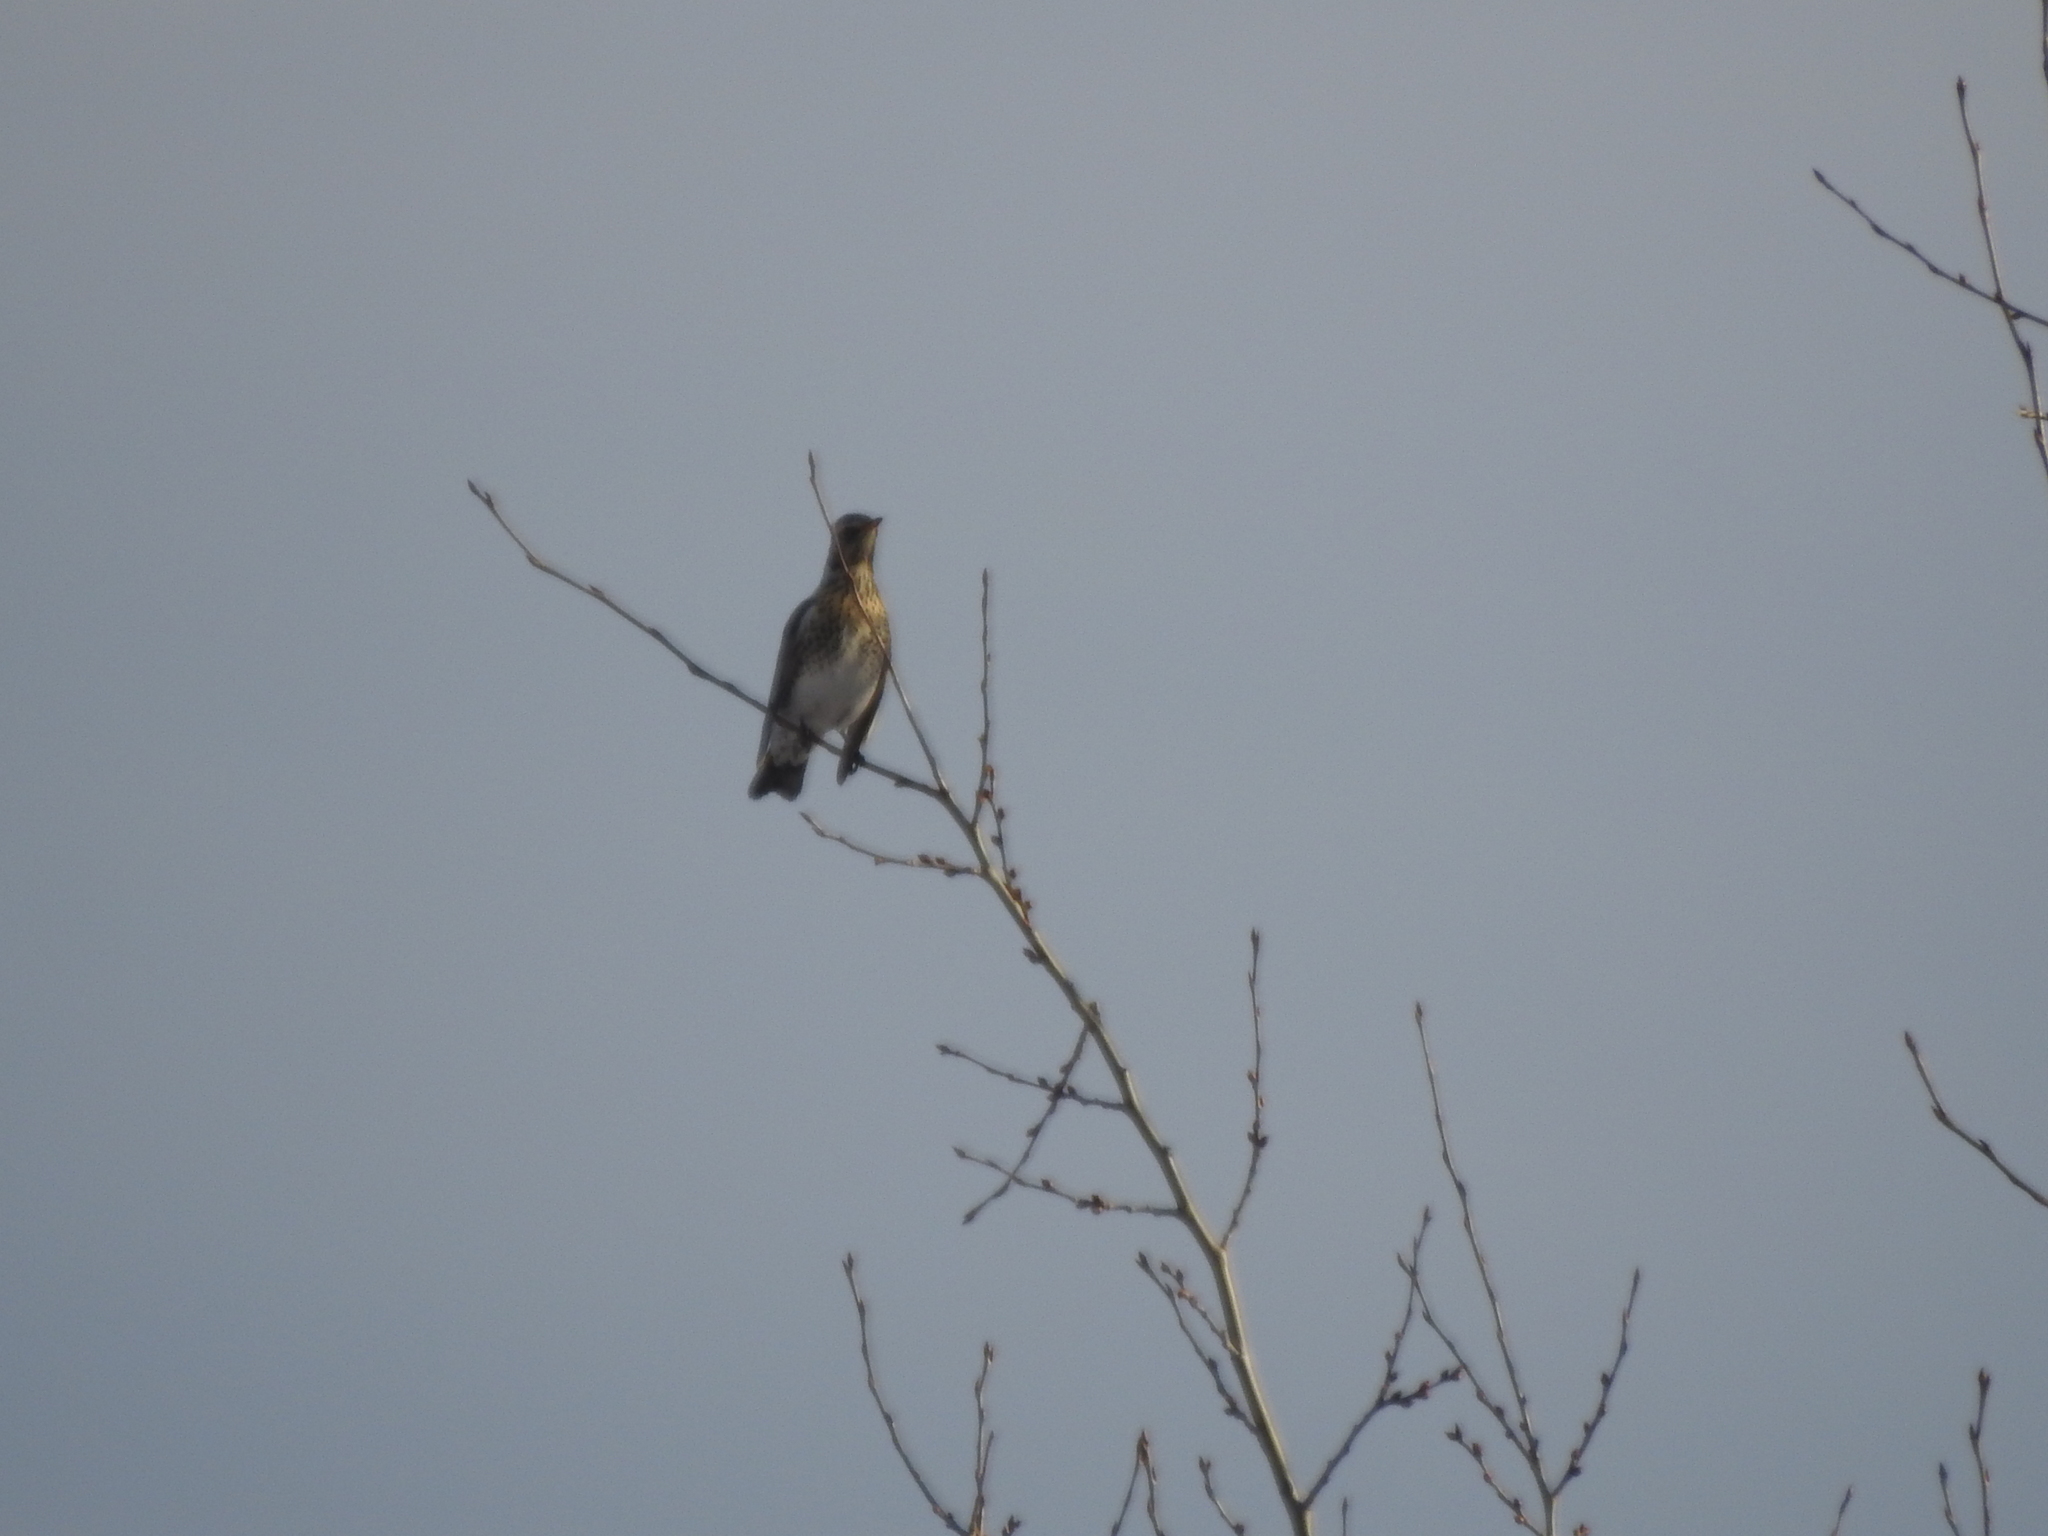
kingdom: Animalia
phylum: Chordata
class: Aves
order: Passeriformes
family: Turdidae
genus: Turdus
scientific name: Turdus pilaris
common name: Fieldfare
